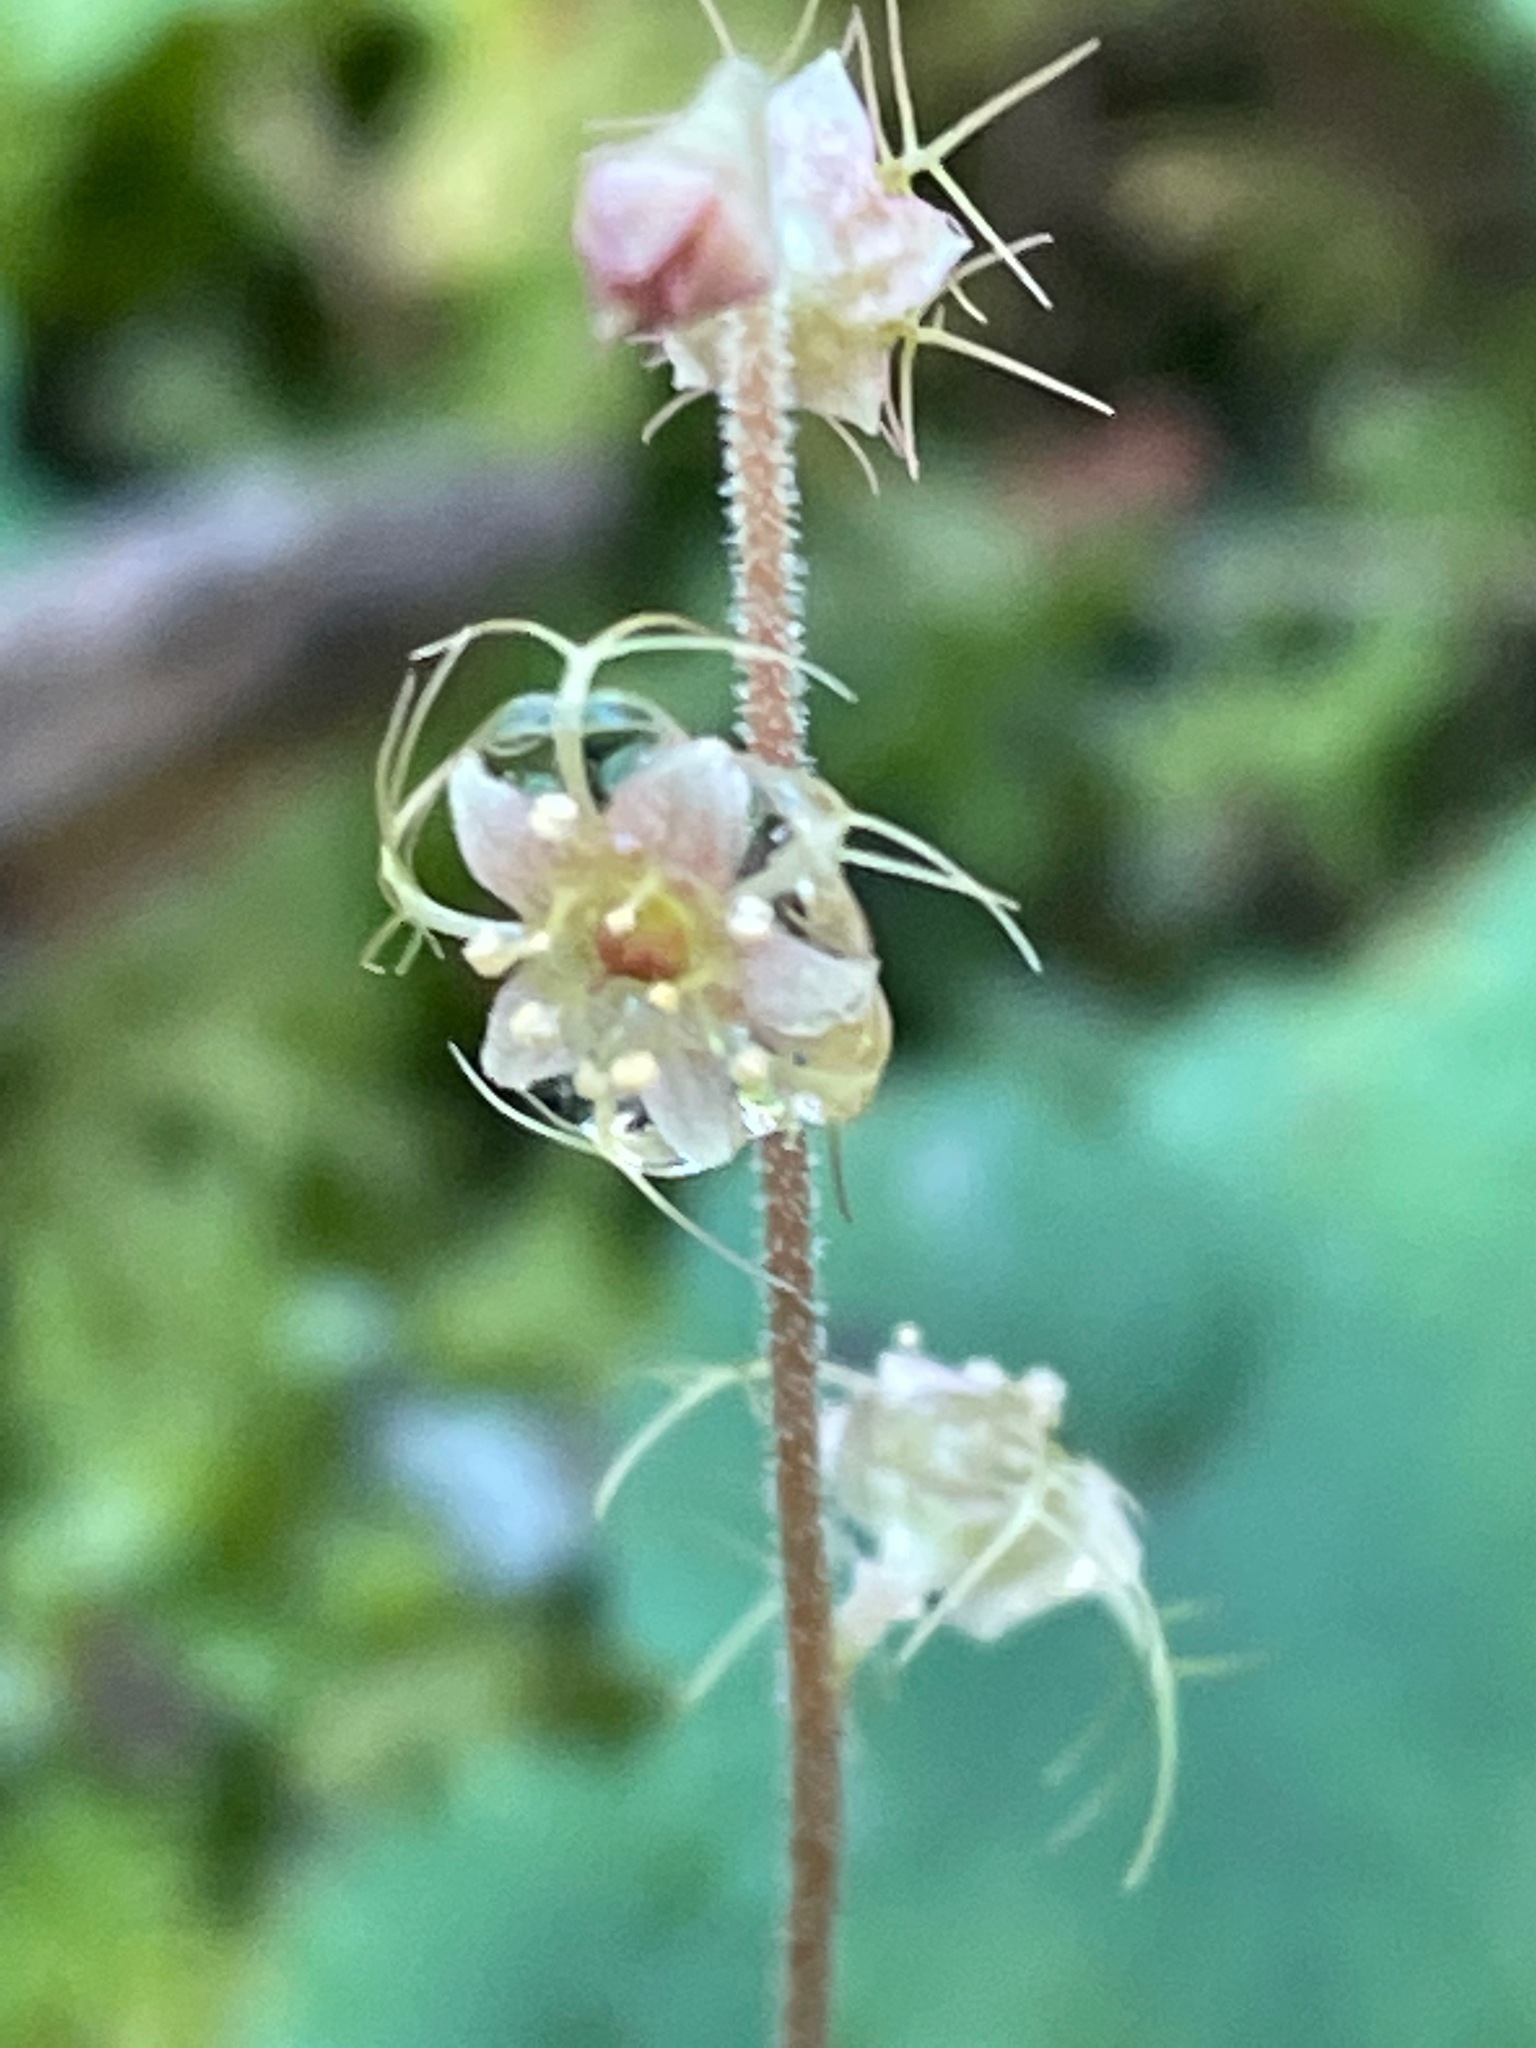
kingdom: Plantae
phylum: Tracheophyta
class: Magnoliopsida
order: Saxifragales
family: Saxifragaceae
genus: Mitella
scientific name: Mitella nuda
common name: Bare-stemmed bishop's-cap
